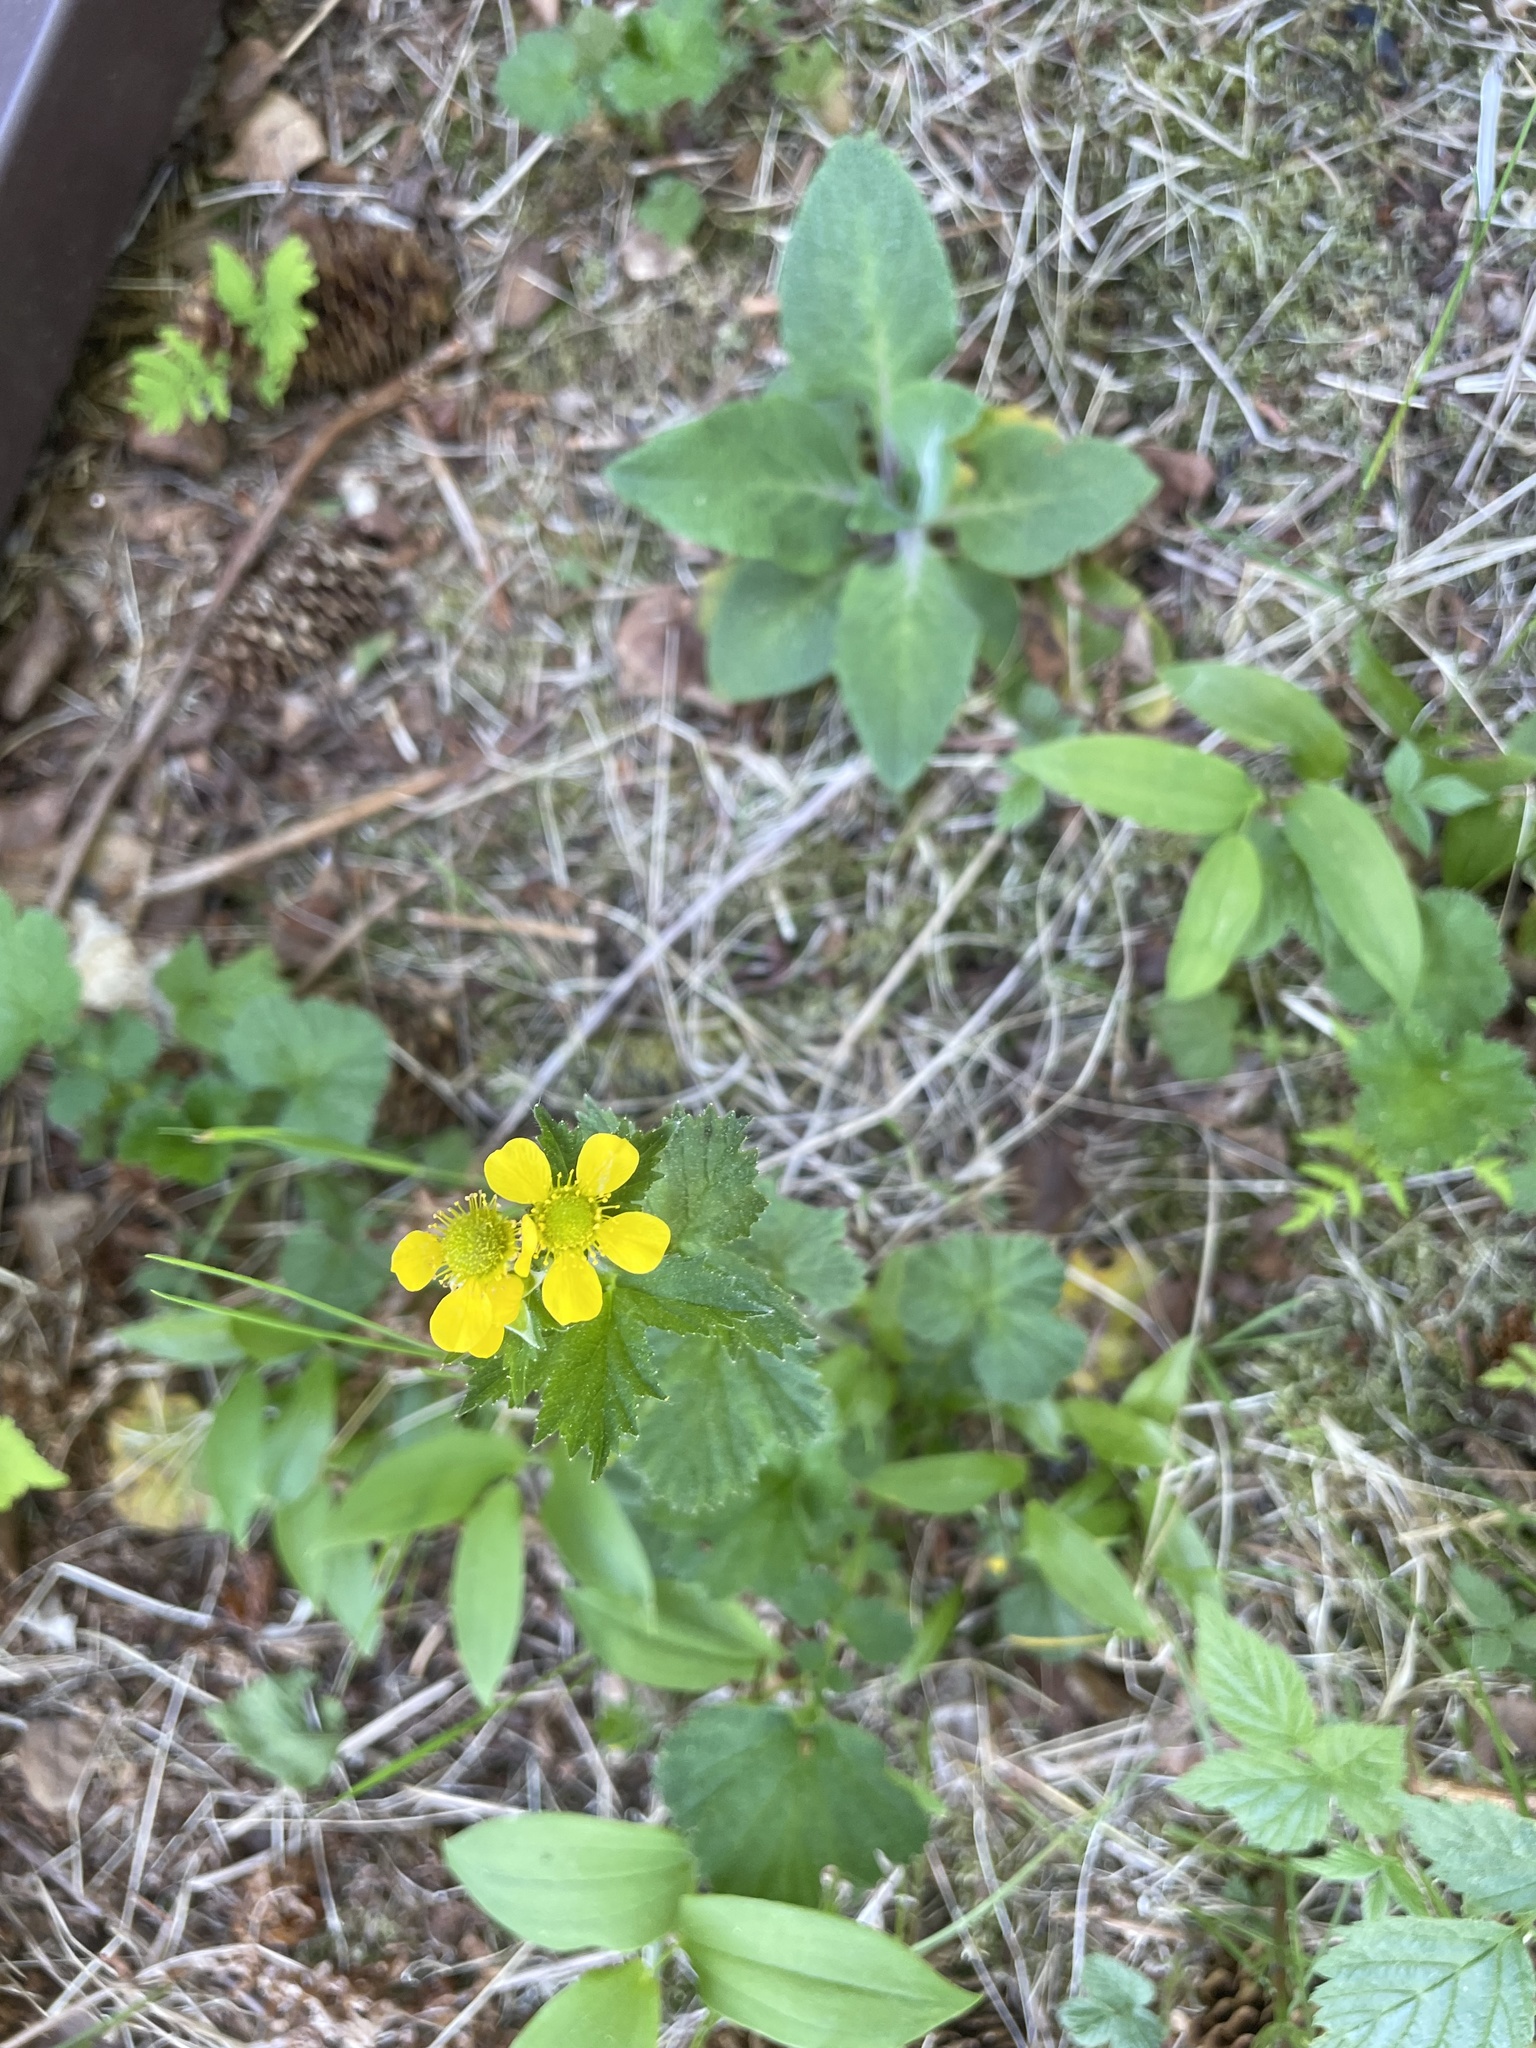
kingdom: Plantae
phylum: Tracheophyta
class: Magnoliopsida
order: Rosales
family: Rosaceae
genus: Geum
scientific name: Geum macrophyllum
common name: Large-leaved avens
